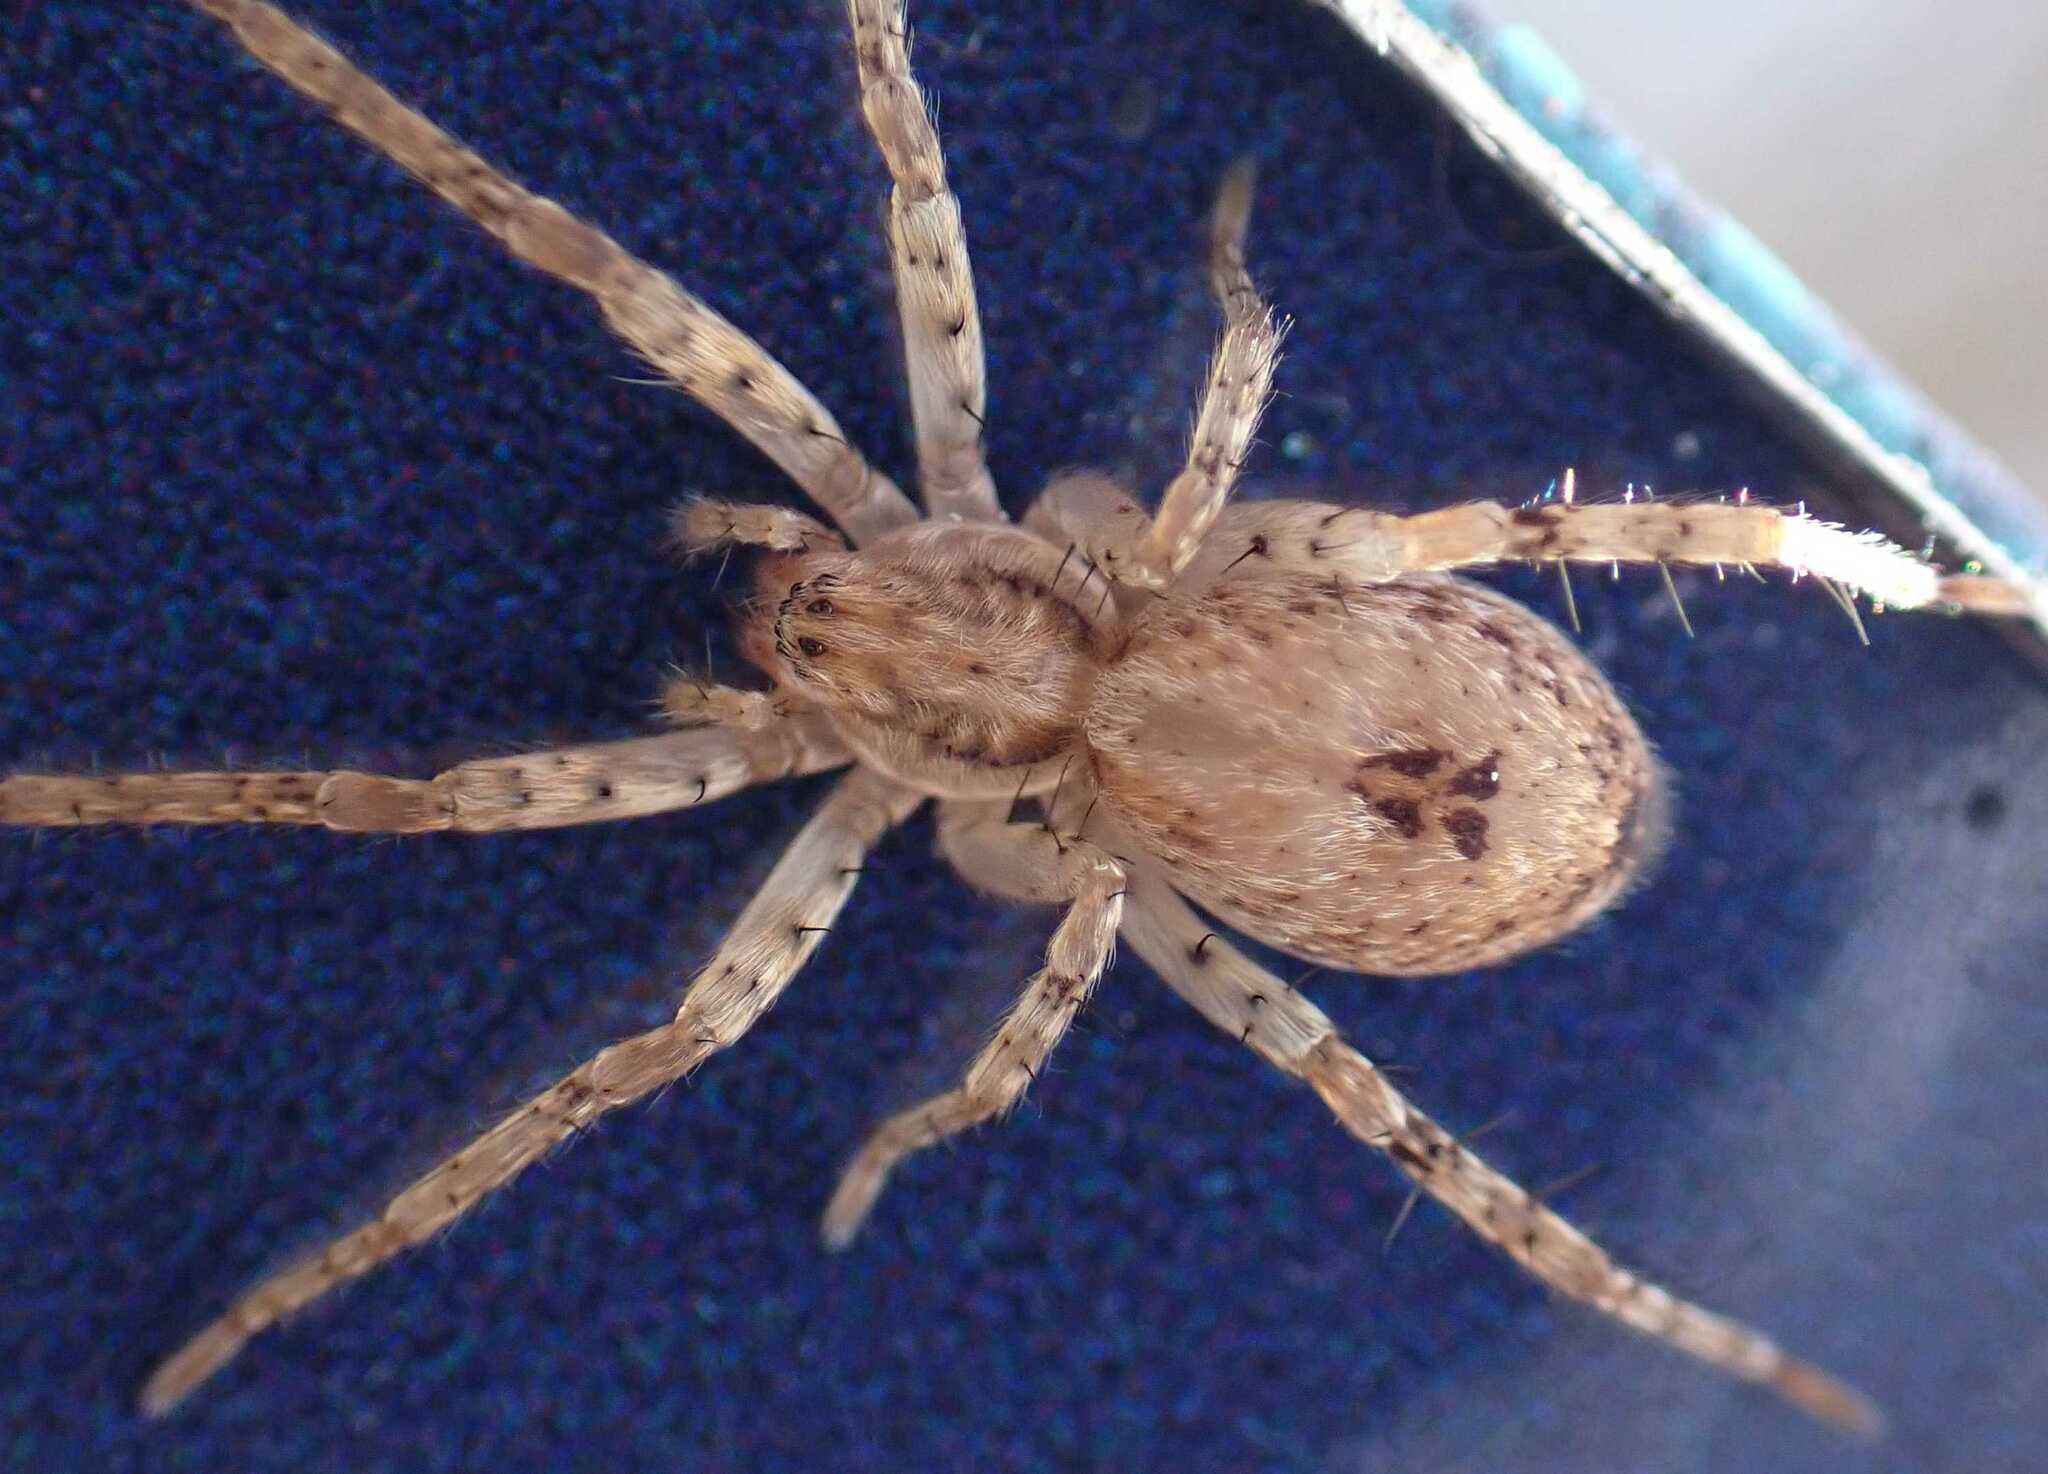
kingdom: Animalia
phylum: Arthropoda
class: Arachnida
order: Araneae
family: Anyphaenidae
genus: Anyphaena
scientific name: Anyphaena accentuata
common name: Buzzing spider
